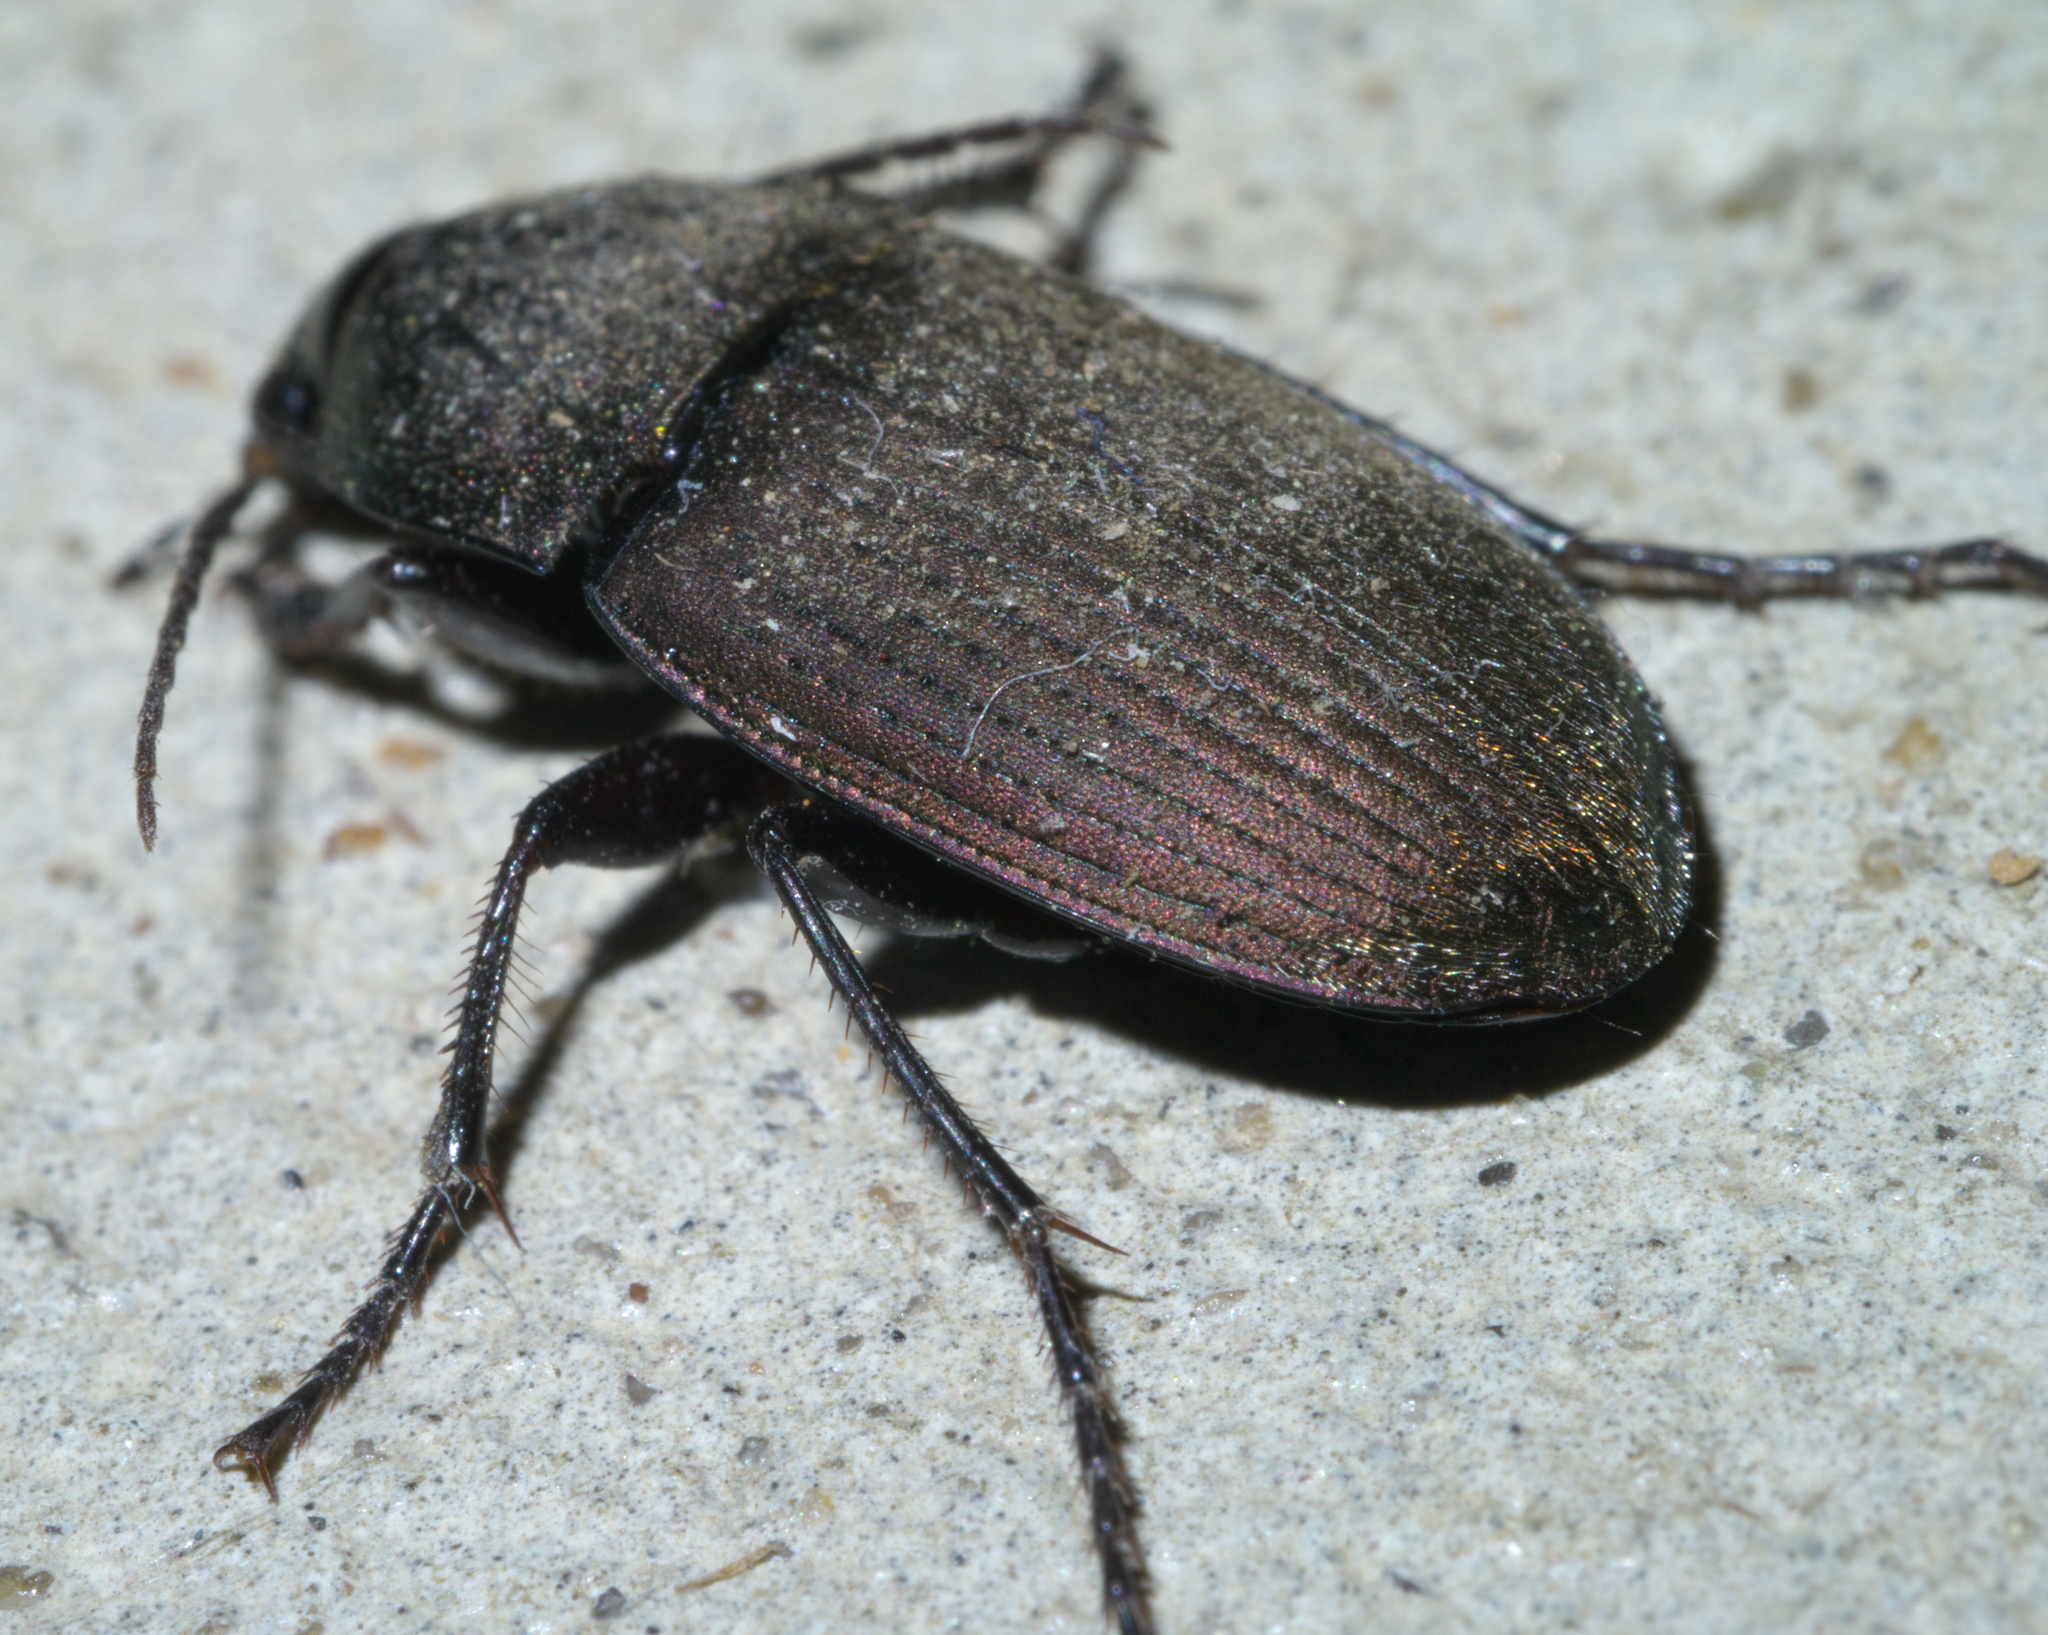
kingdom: Animalia
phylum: Arthropoda
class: Insecta
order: Coleoptera
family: Carabidae
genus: Chlaenius
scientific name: Chlaenius tomentosus
